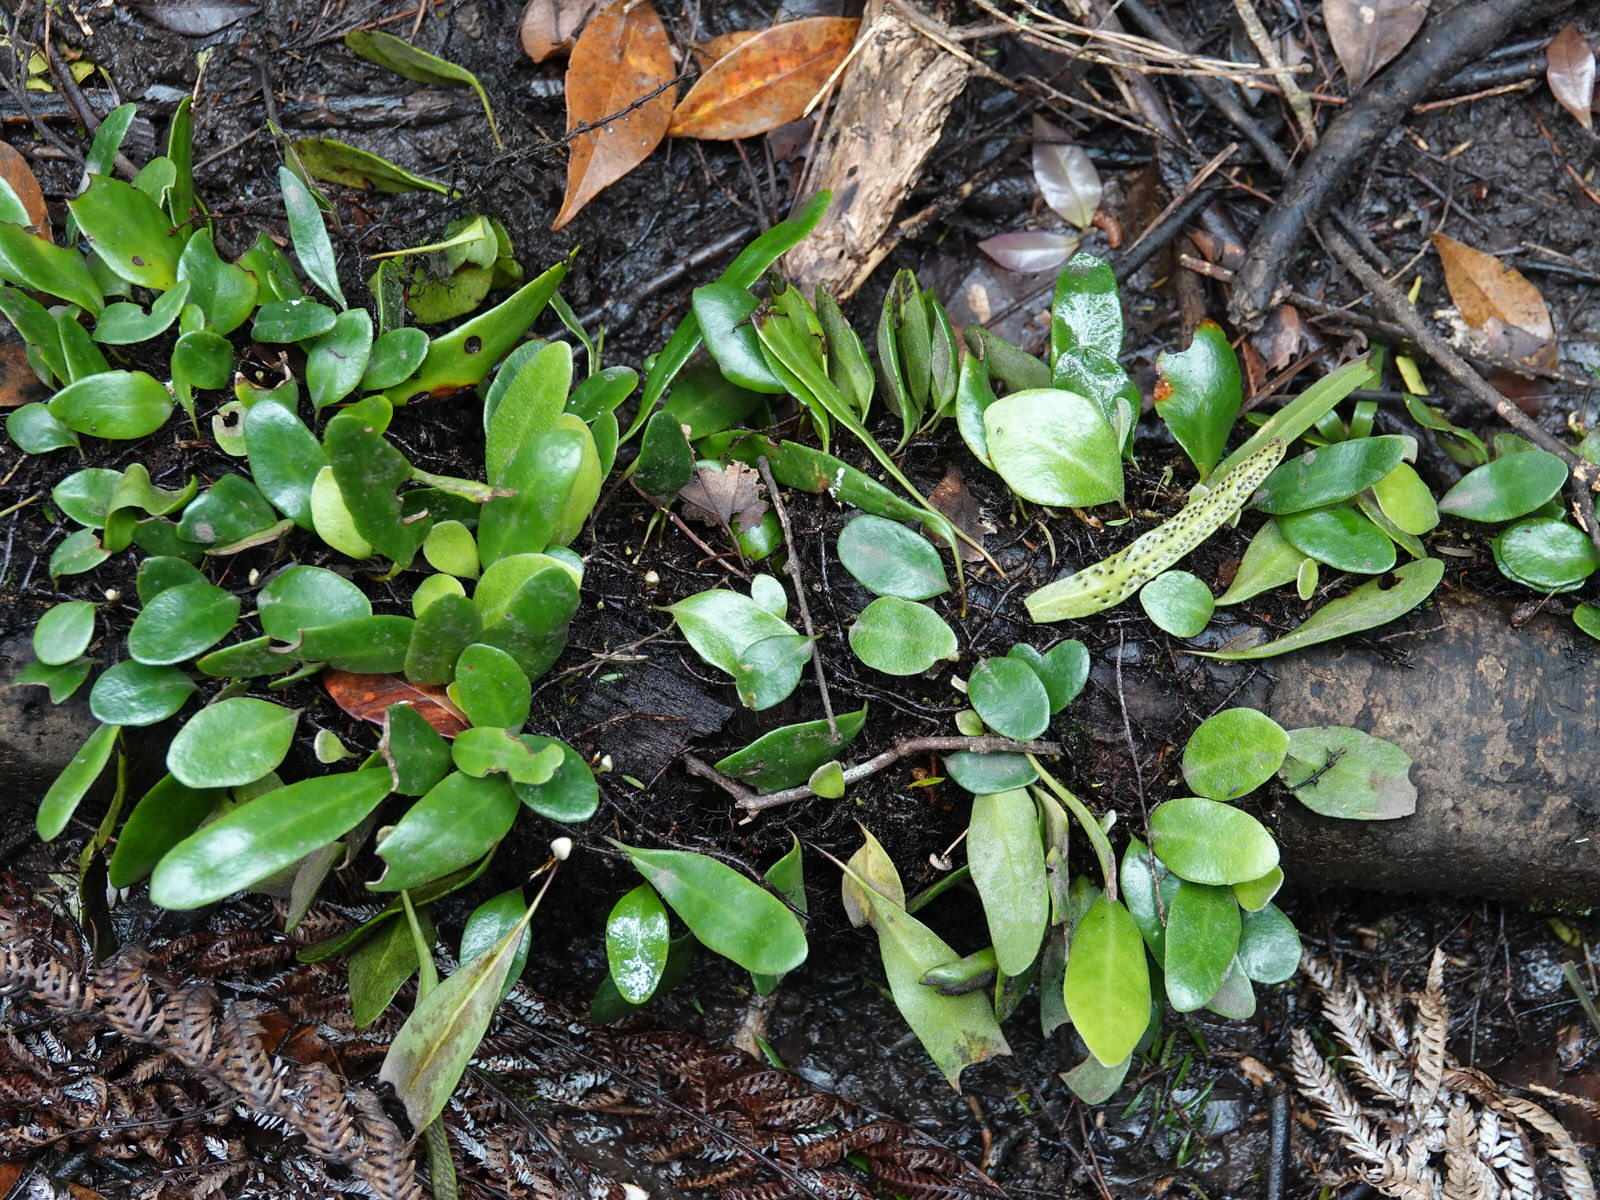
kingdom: Plantae
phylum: Tracheophyta
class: Polypodiopsida
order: Polypodiales
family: Polypodiaceae
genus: Pyrrosia
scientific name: Pyrrosia eleagnifolia
